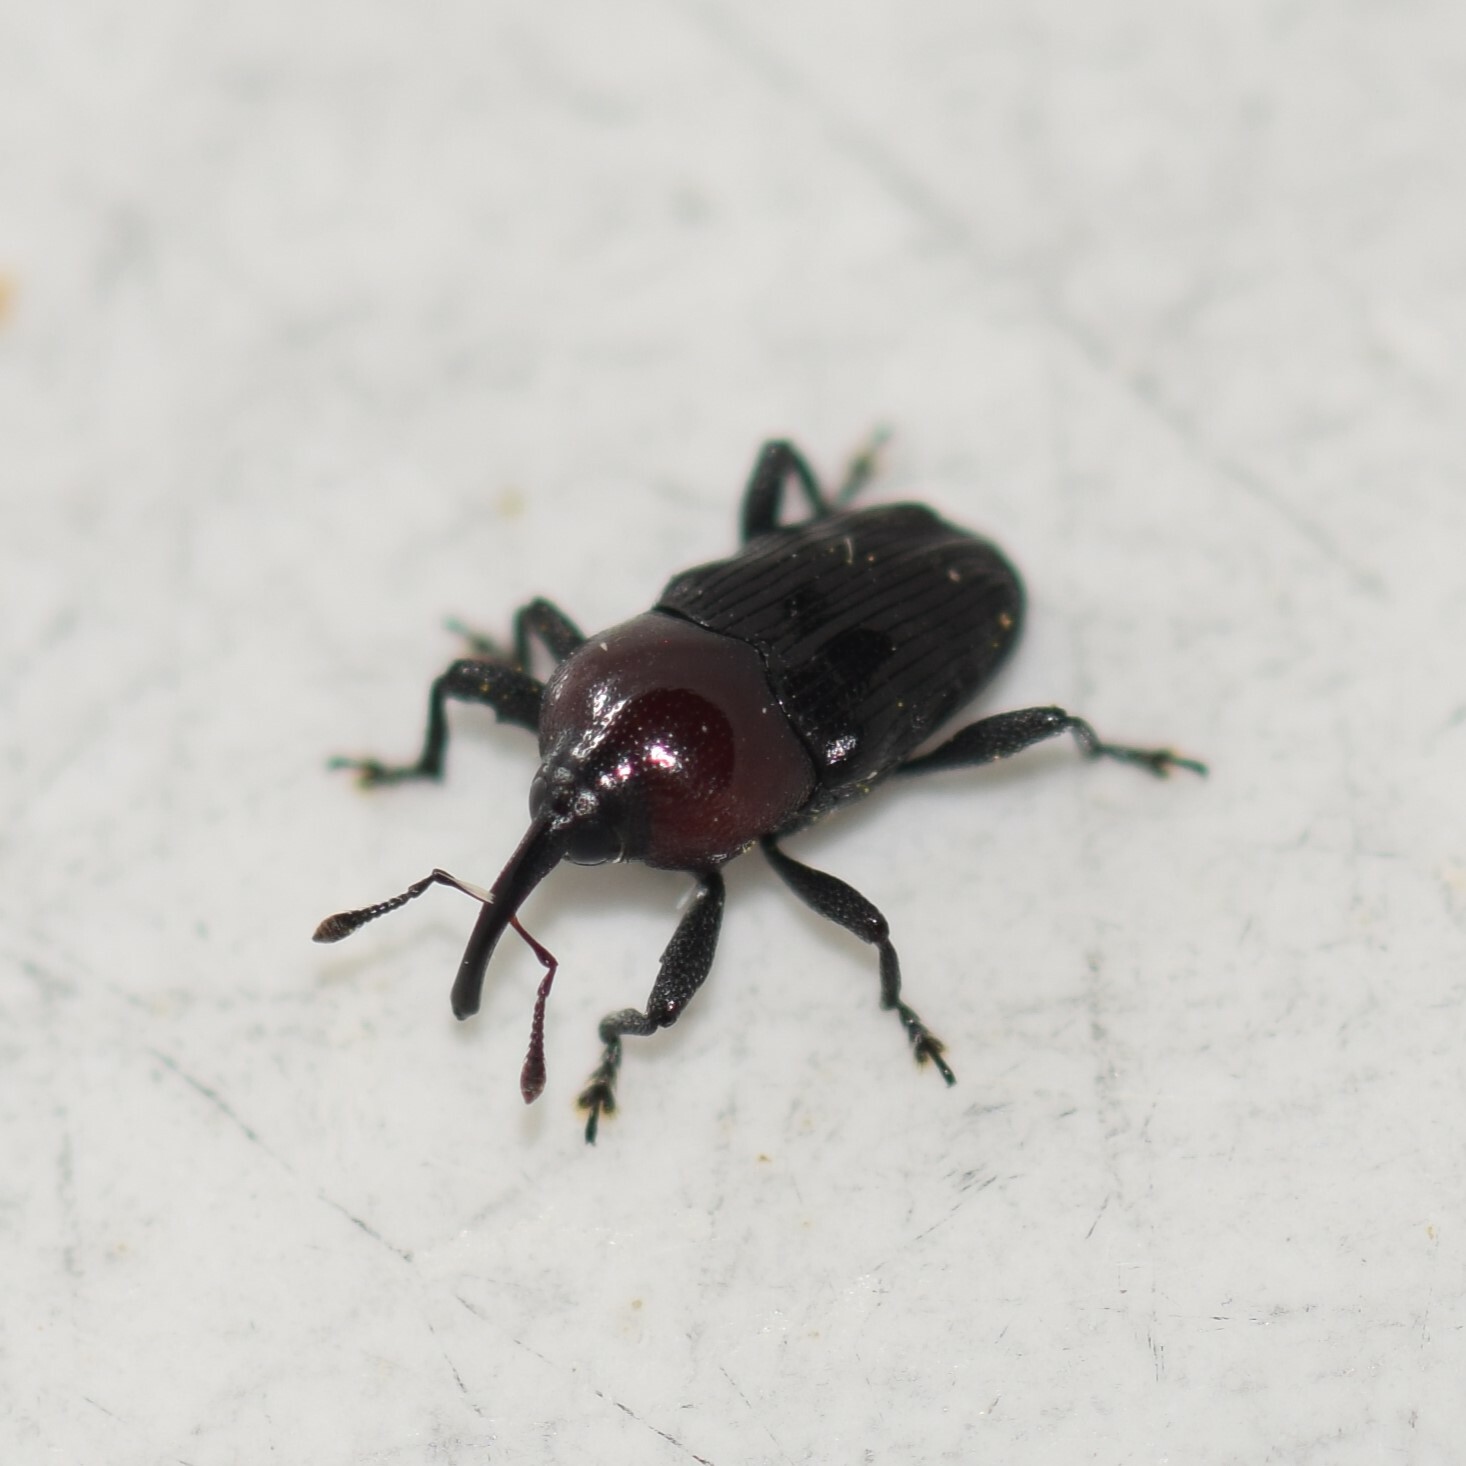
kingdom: Animalia
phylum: Arthropoda
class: Insecta
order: Coleoptera
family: Curculionidae
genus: Madarellus
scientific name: Madarellus undulatus
